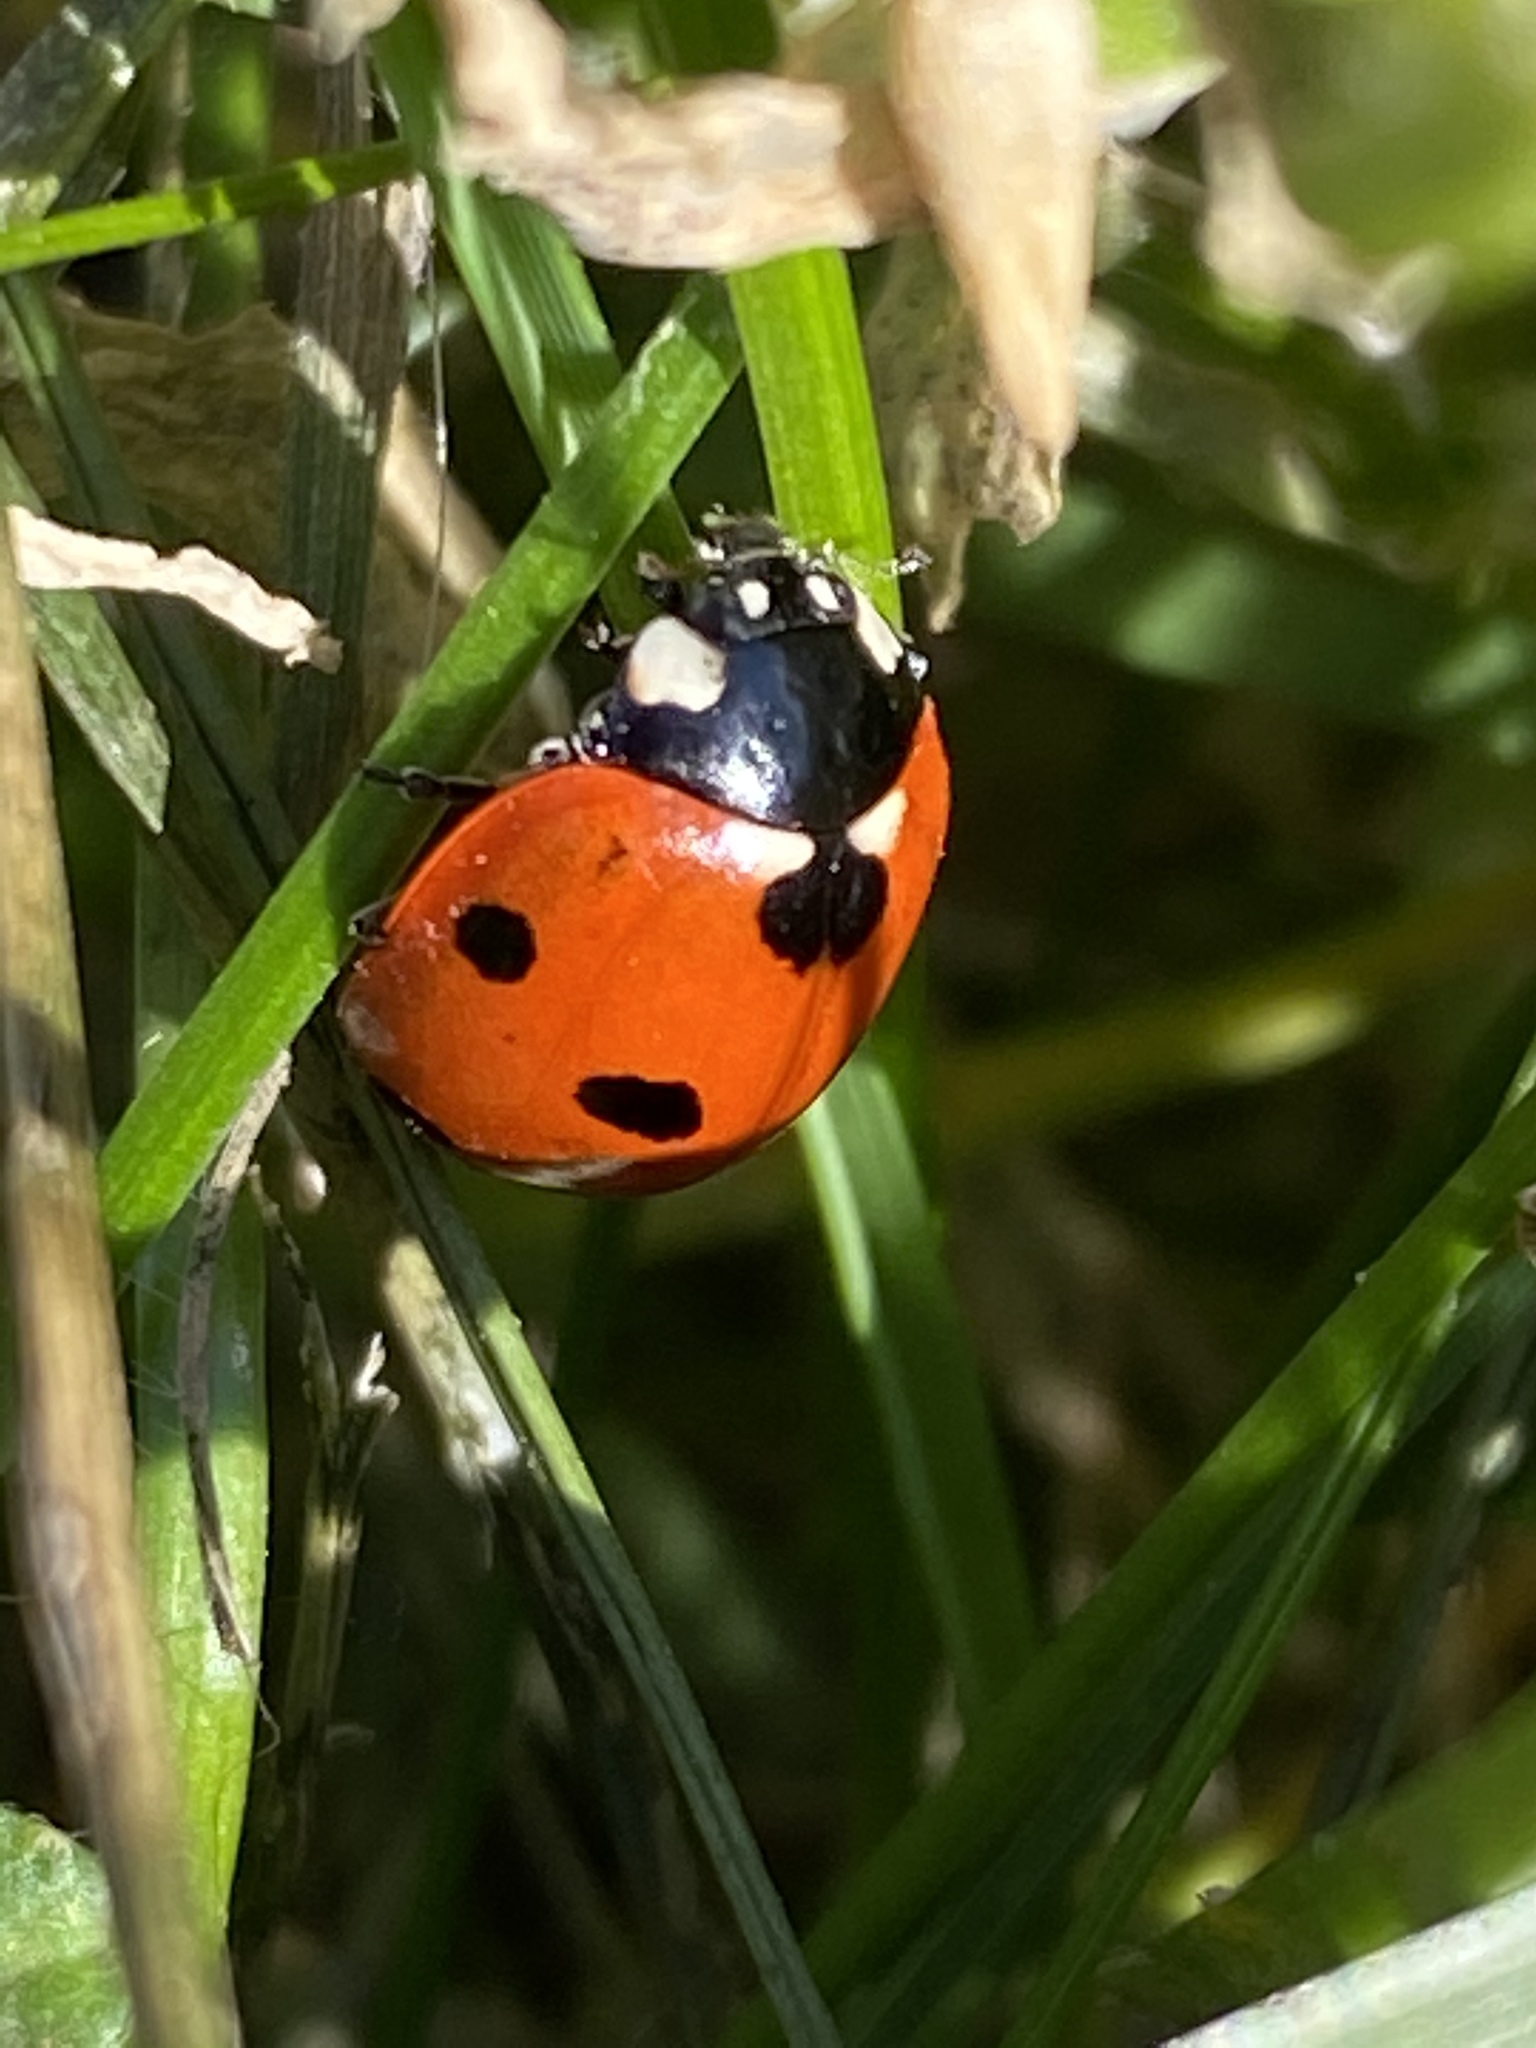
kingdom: Animalia
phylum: Arthropoda
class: Insecta
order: Coleoptera
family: Coccinellidae
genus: Coccinella
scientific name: Coccinella septempunctata
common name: Sevenspotted lady beetle
